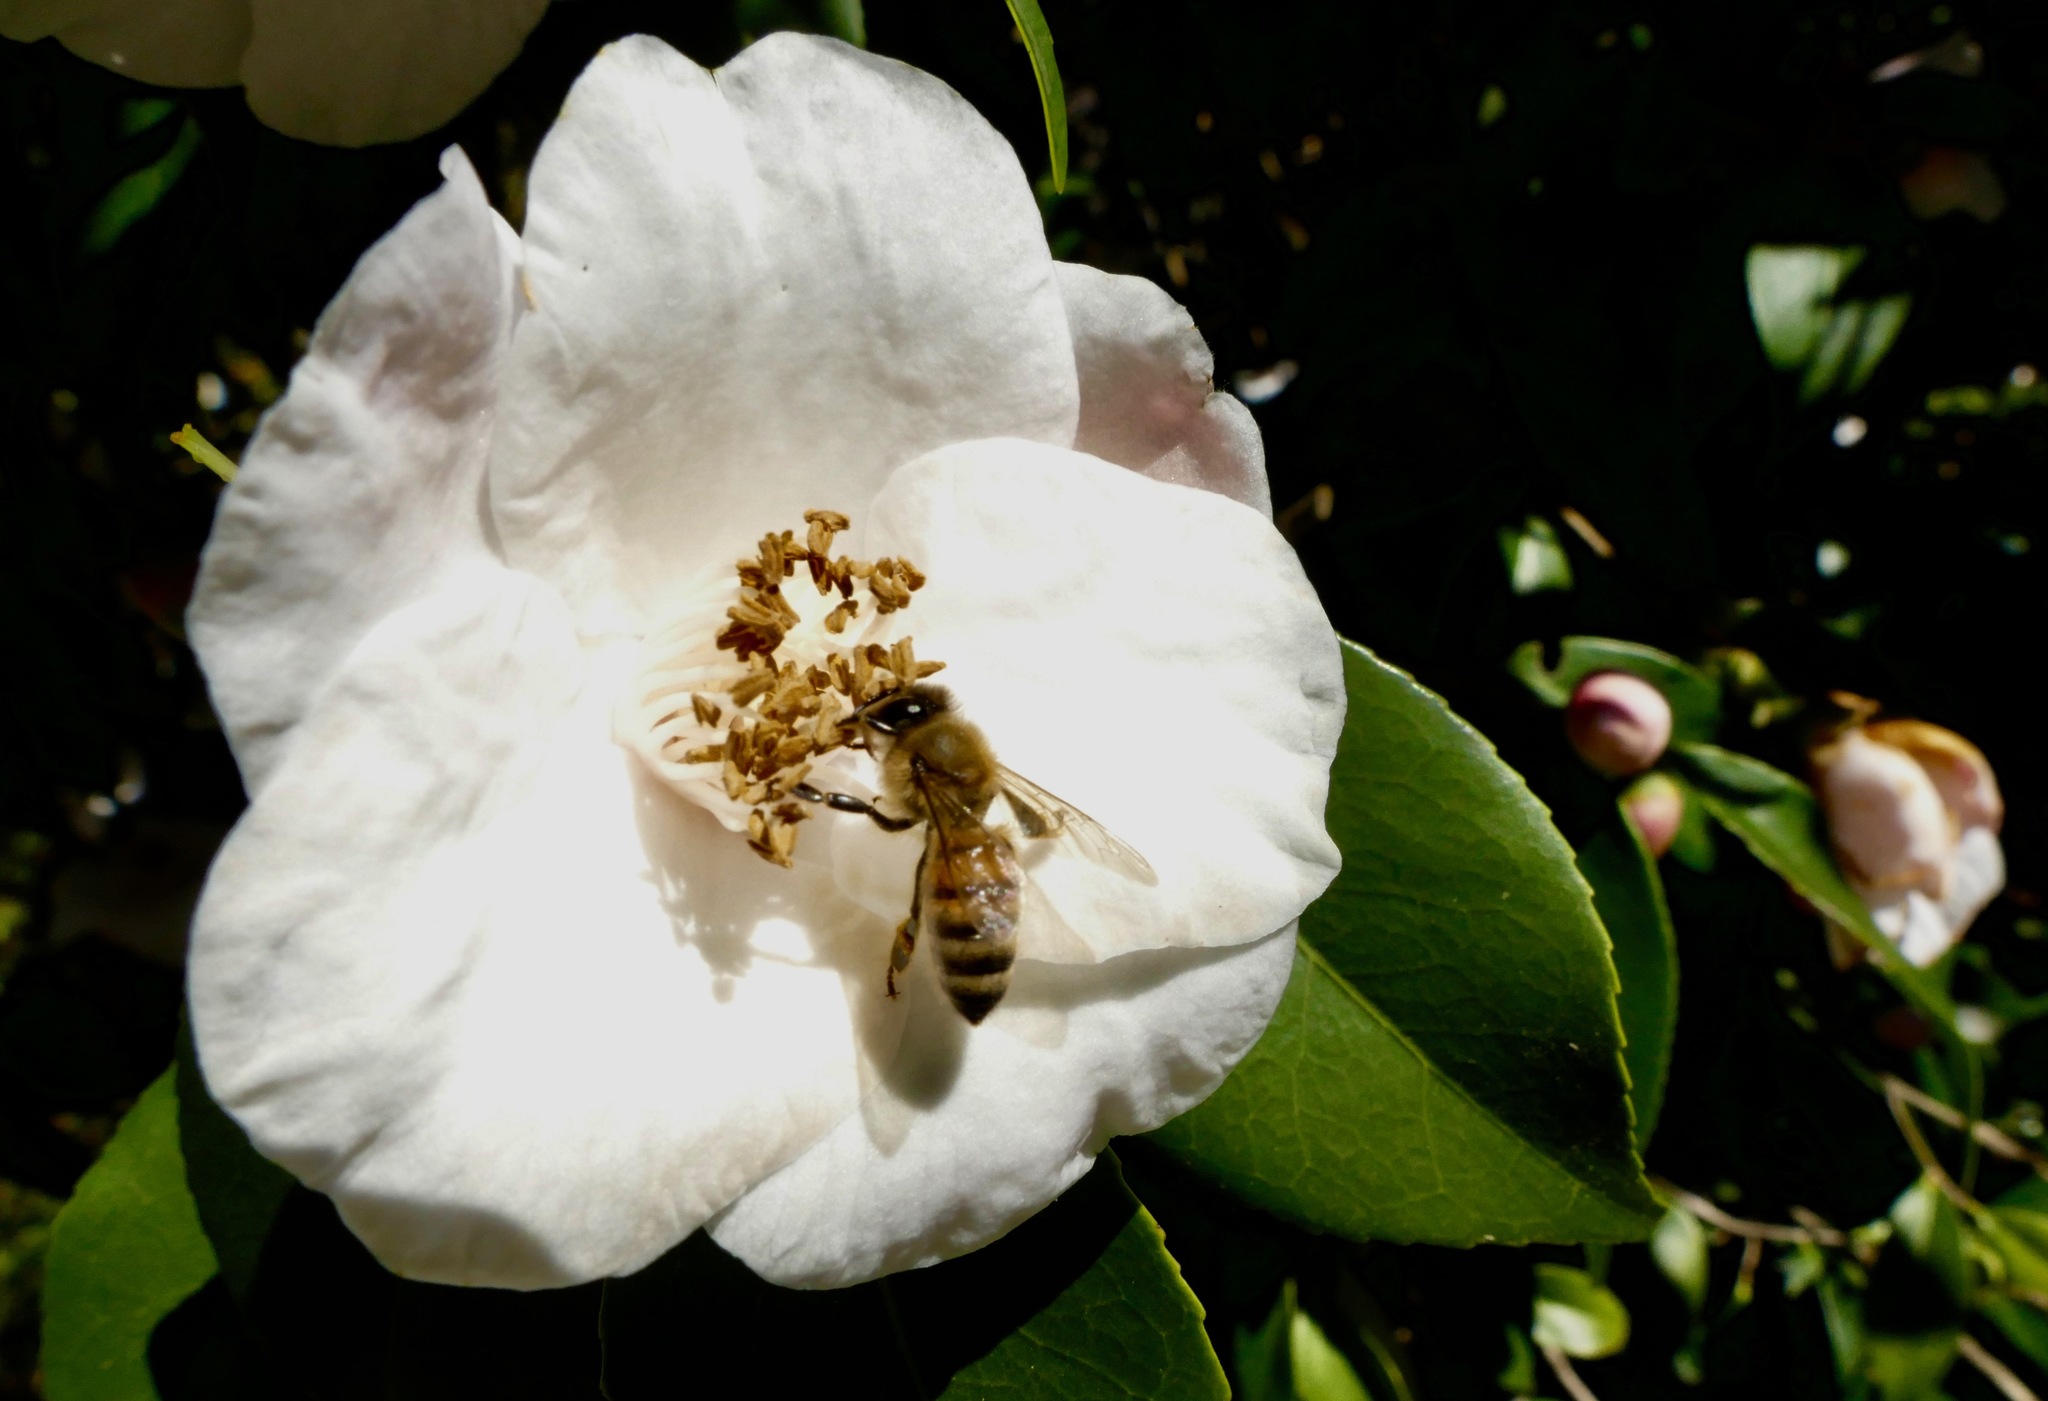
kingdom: Animalia
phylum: Arthropoda
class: Insecta
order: Hymenoptera
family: Apidae
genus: Apis
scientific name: Apis mellifera
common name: Honey bee
